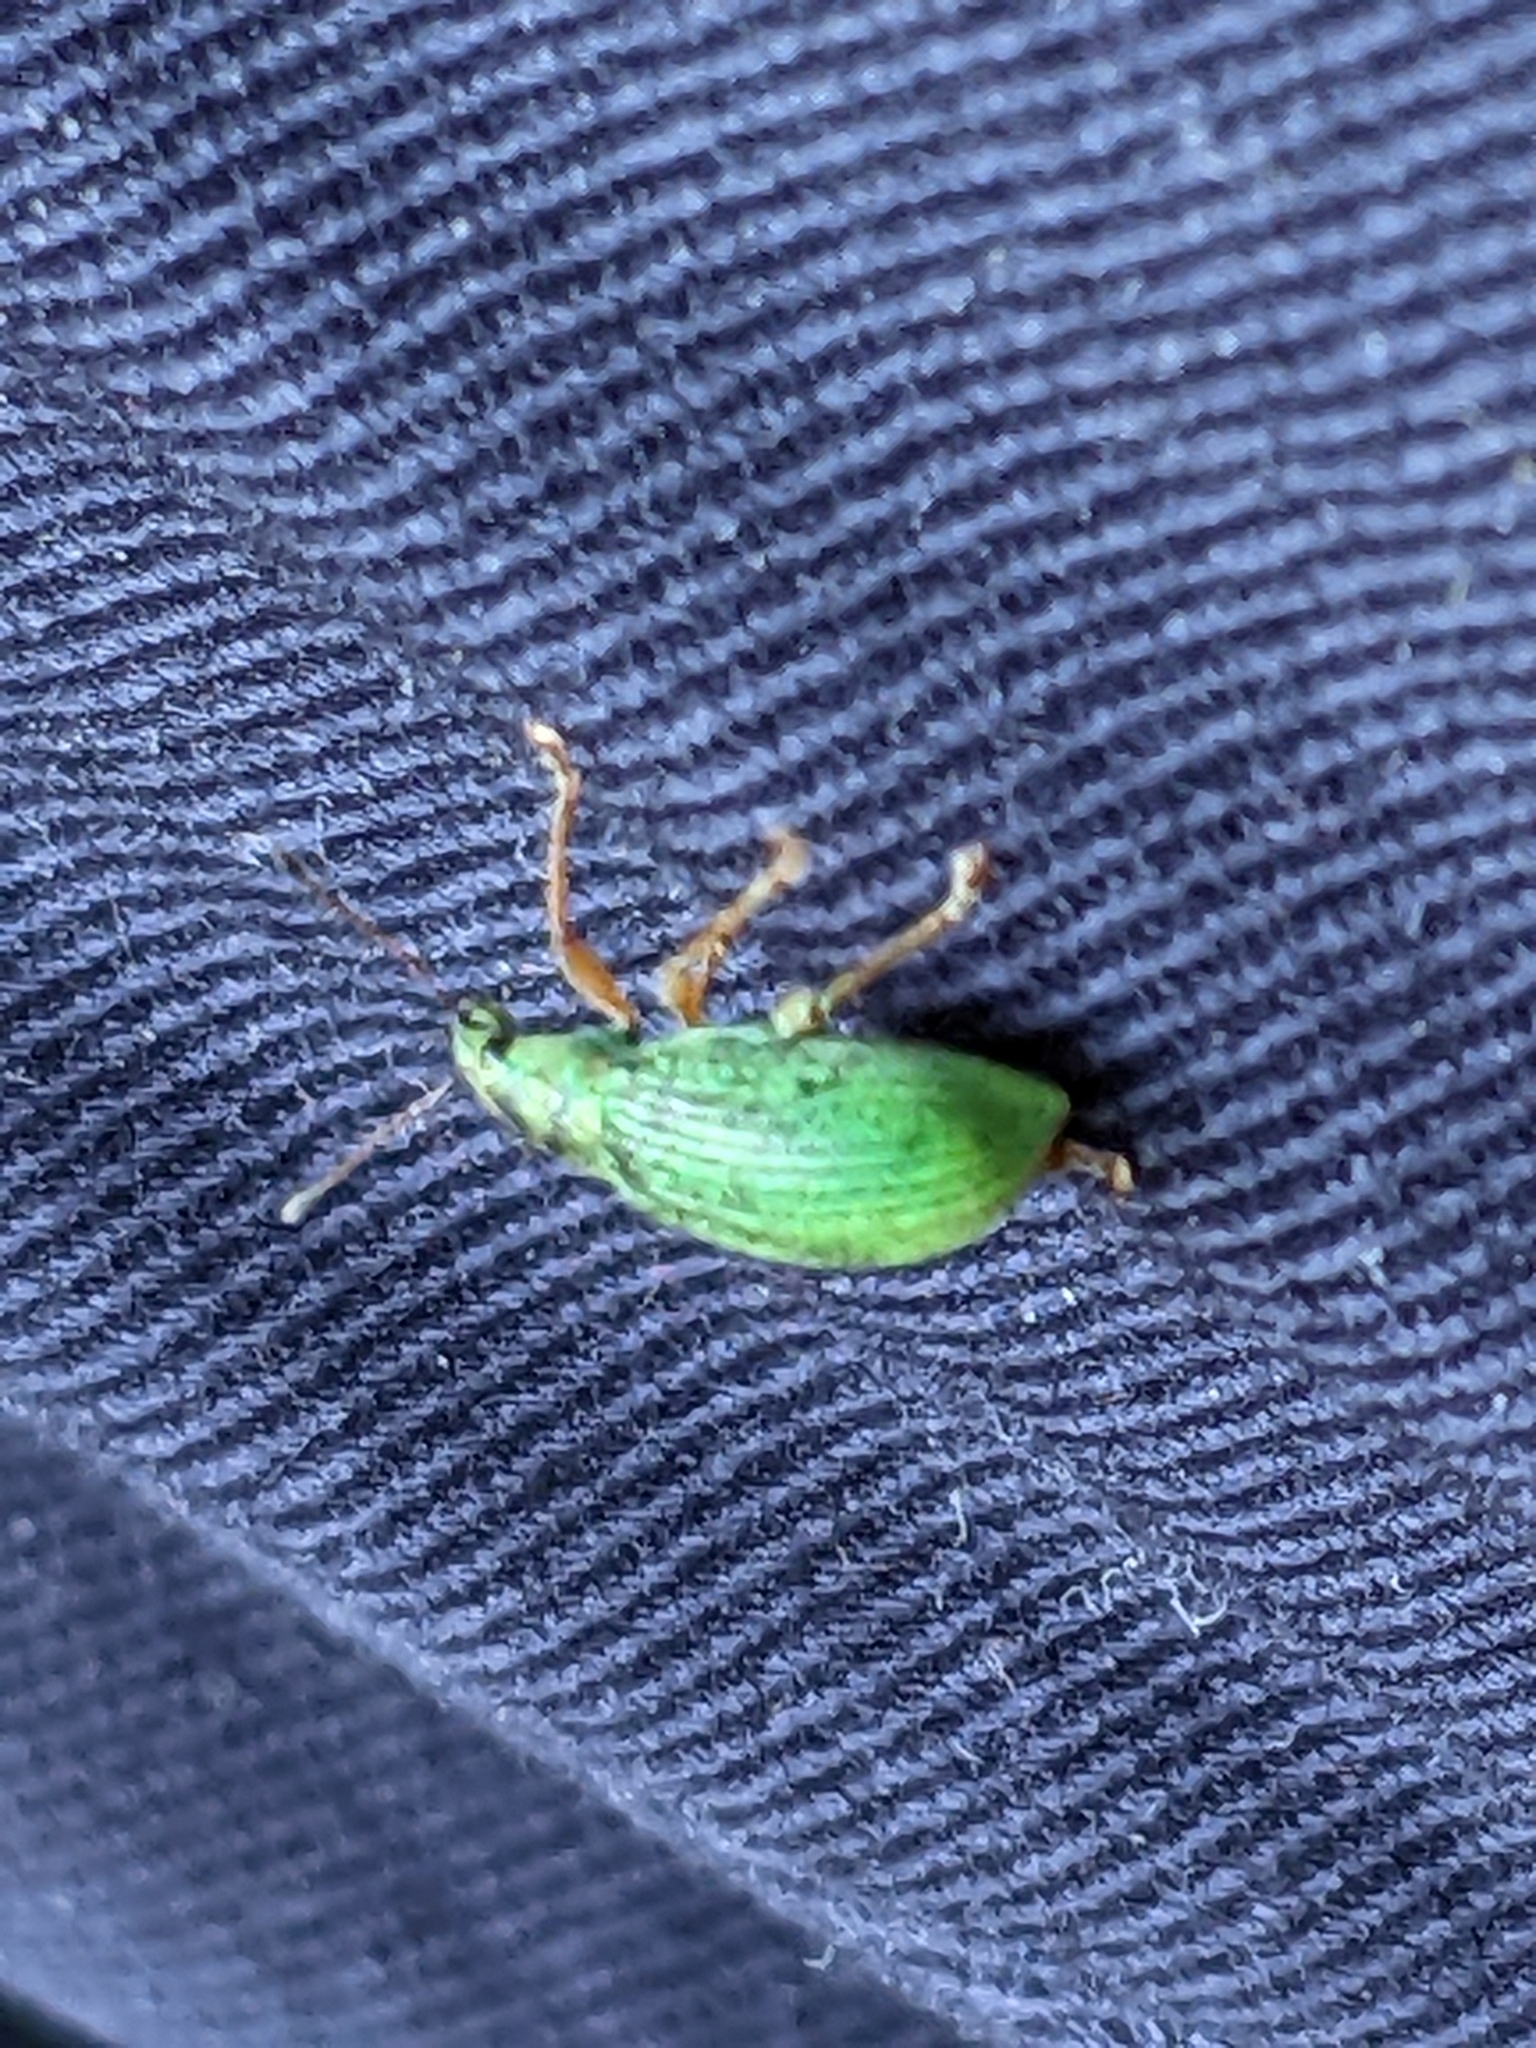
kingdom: Animalia
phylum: Arthropoda
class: Insecta
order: Coleoptera
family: Curculionidae
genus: Polydrusus
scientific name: Polydrusus formosus
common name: Weevil
